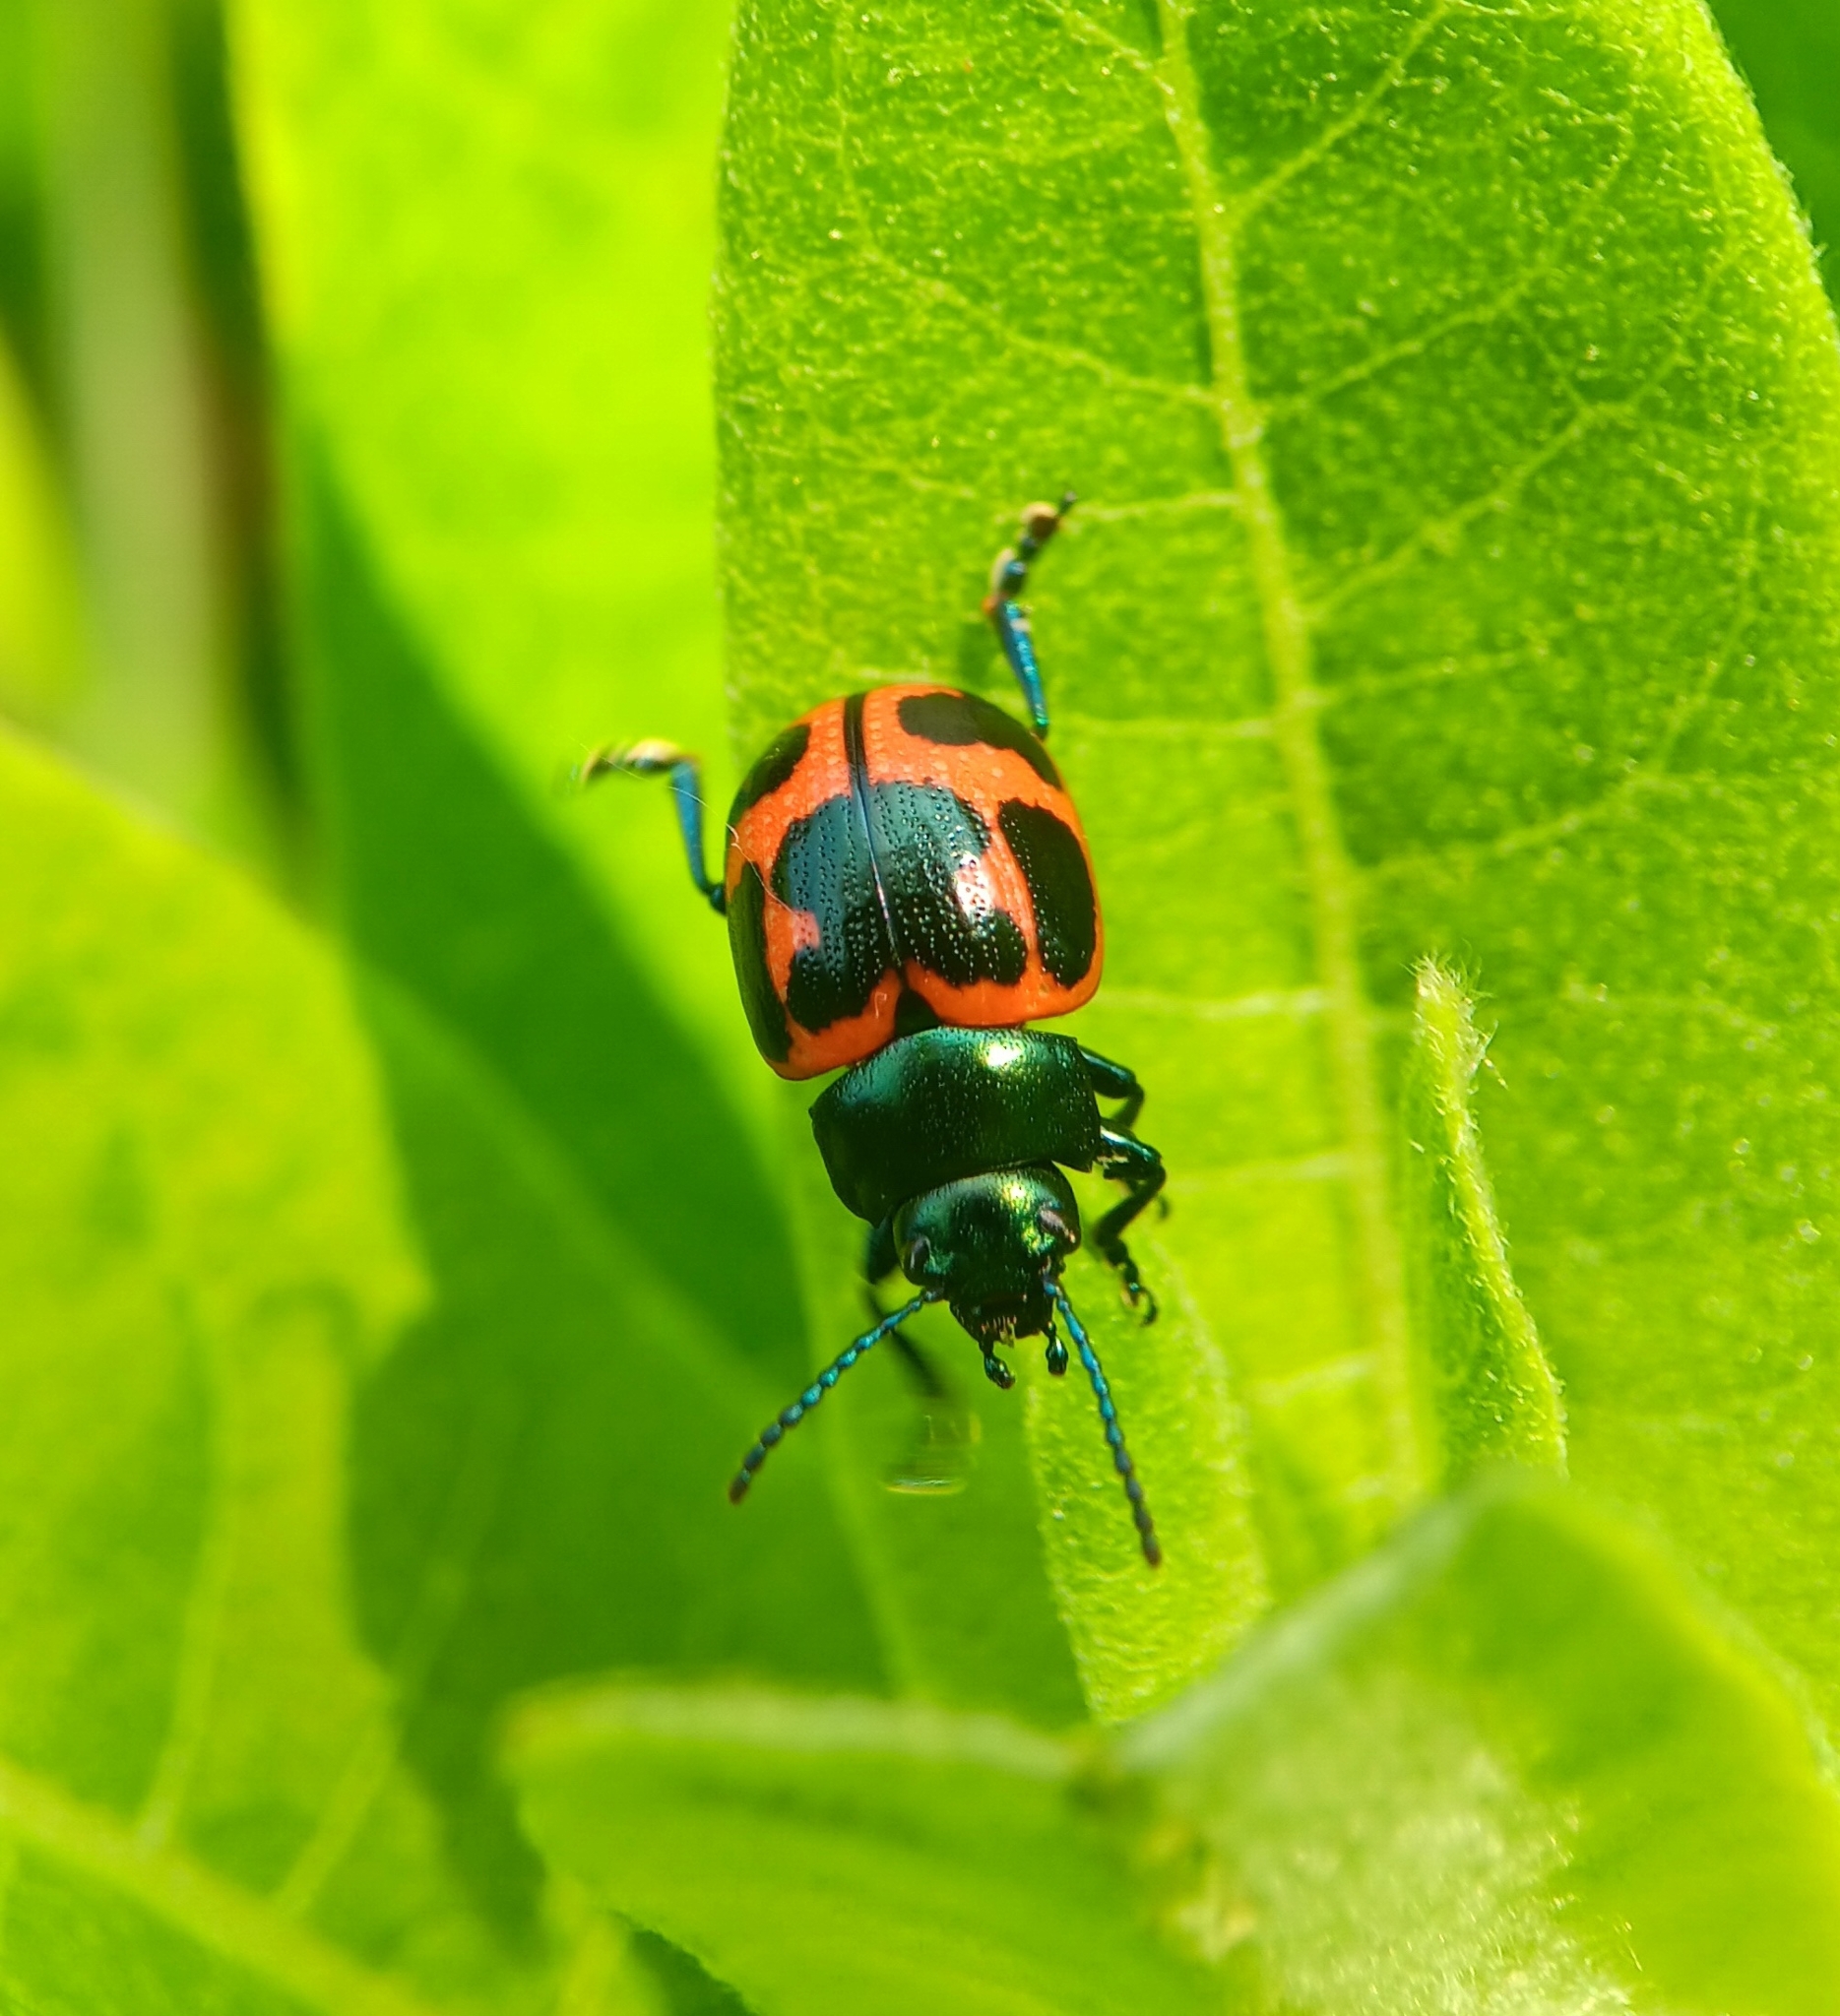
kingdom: Animalia
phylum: Arthropoda
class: Insecta
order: Coleoptera
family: Chrysomelidae
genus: Labidomera
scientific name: Labidomera clivicollis
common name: Swamp milkweed leaf beetle
